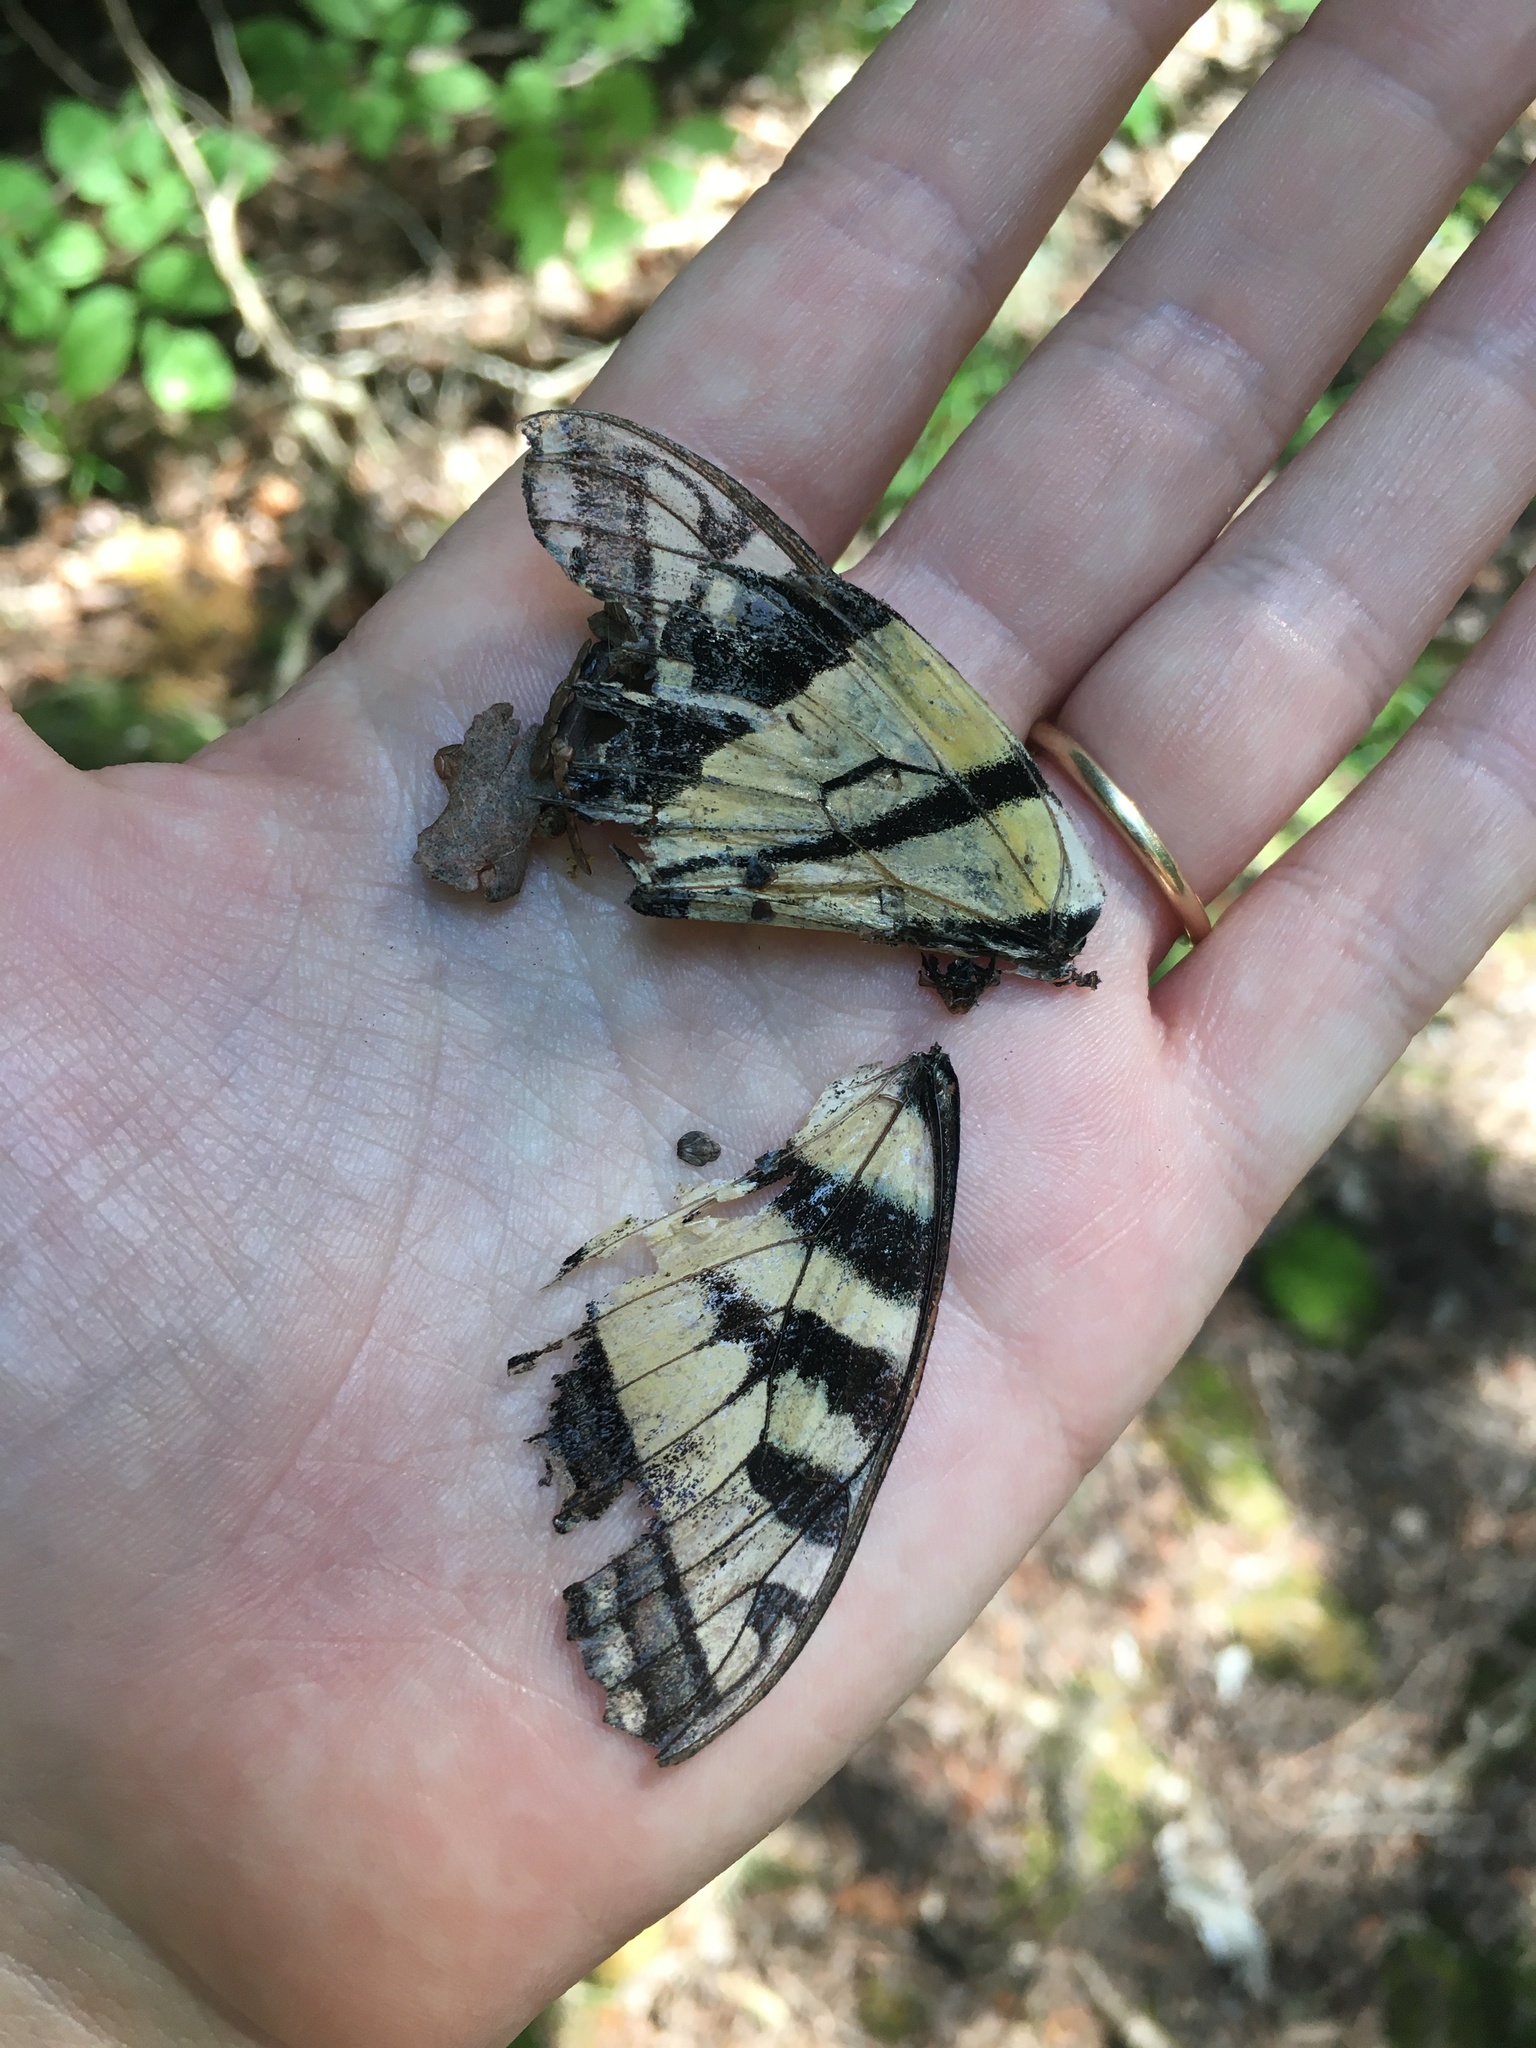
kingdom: Animalia
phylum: Arthropoda
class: Insecta
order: Lepidoptera
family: Papilionidae
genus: Pterourus
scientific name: Pterourus
